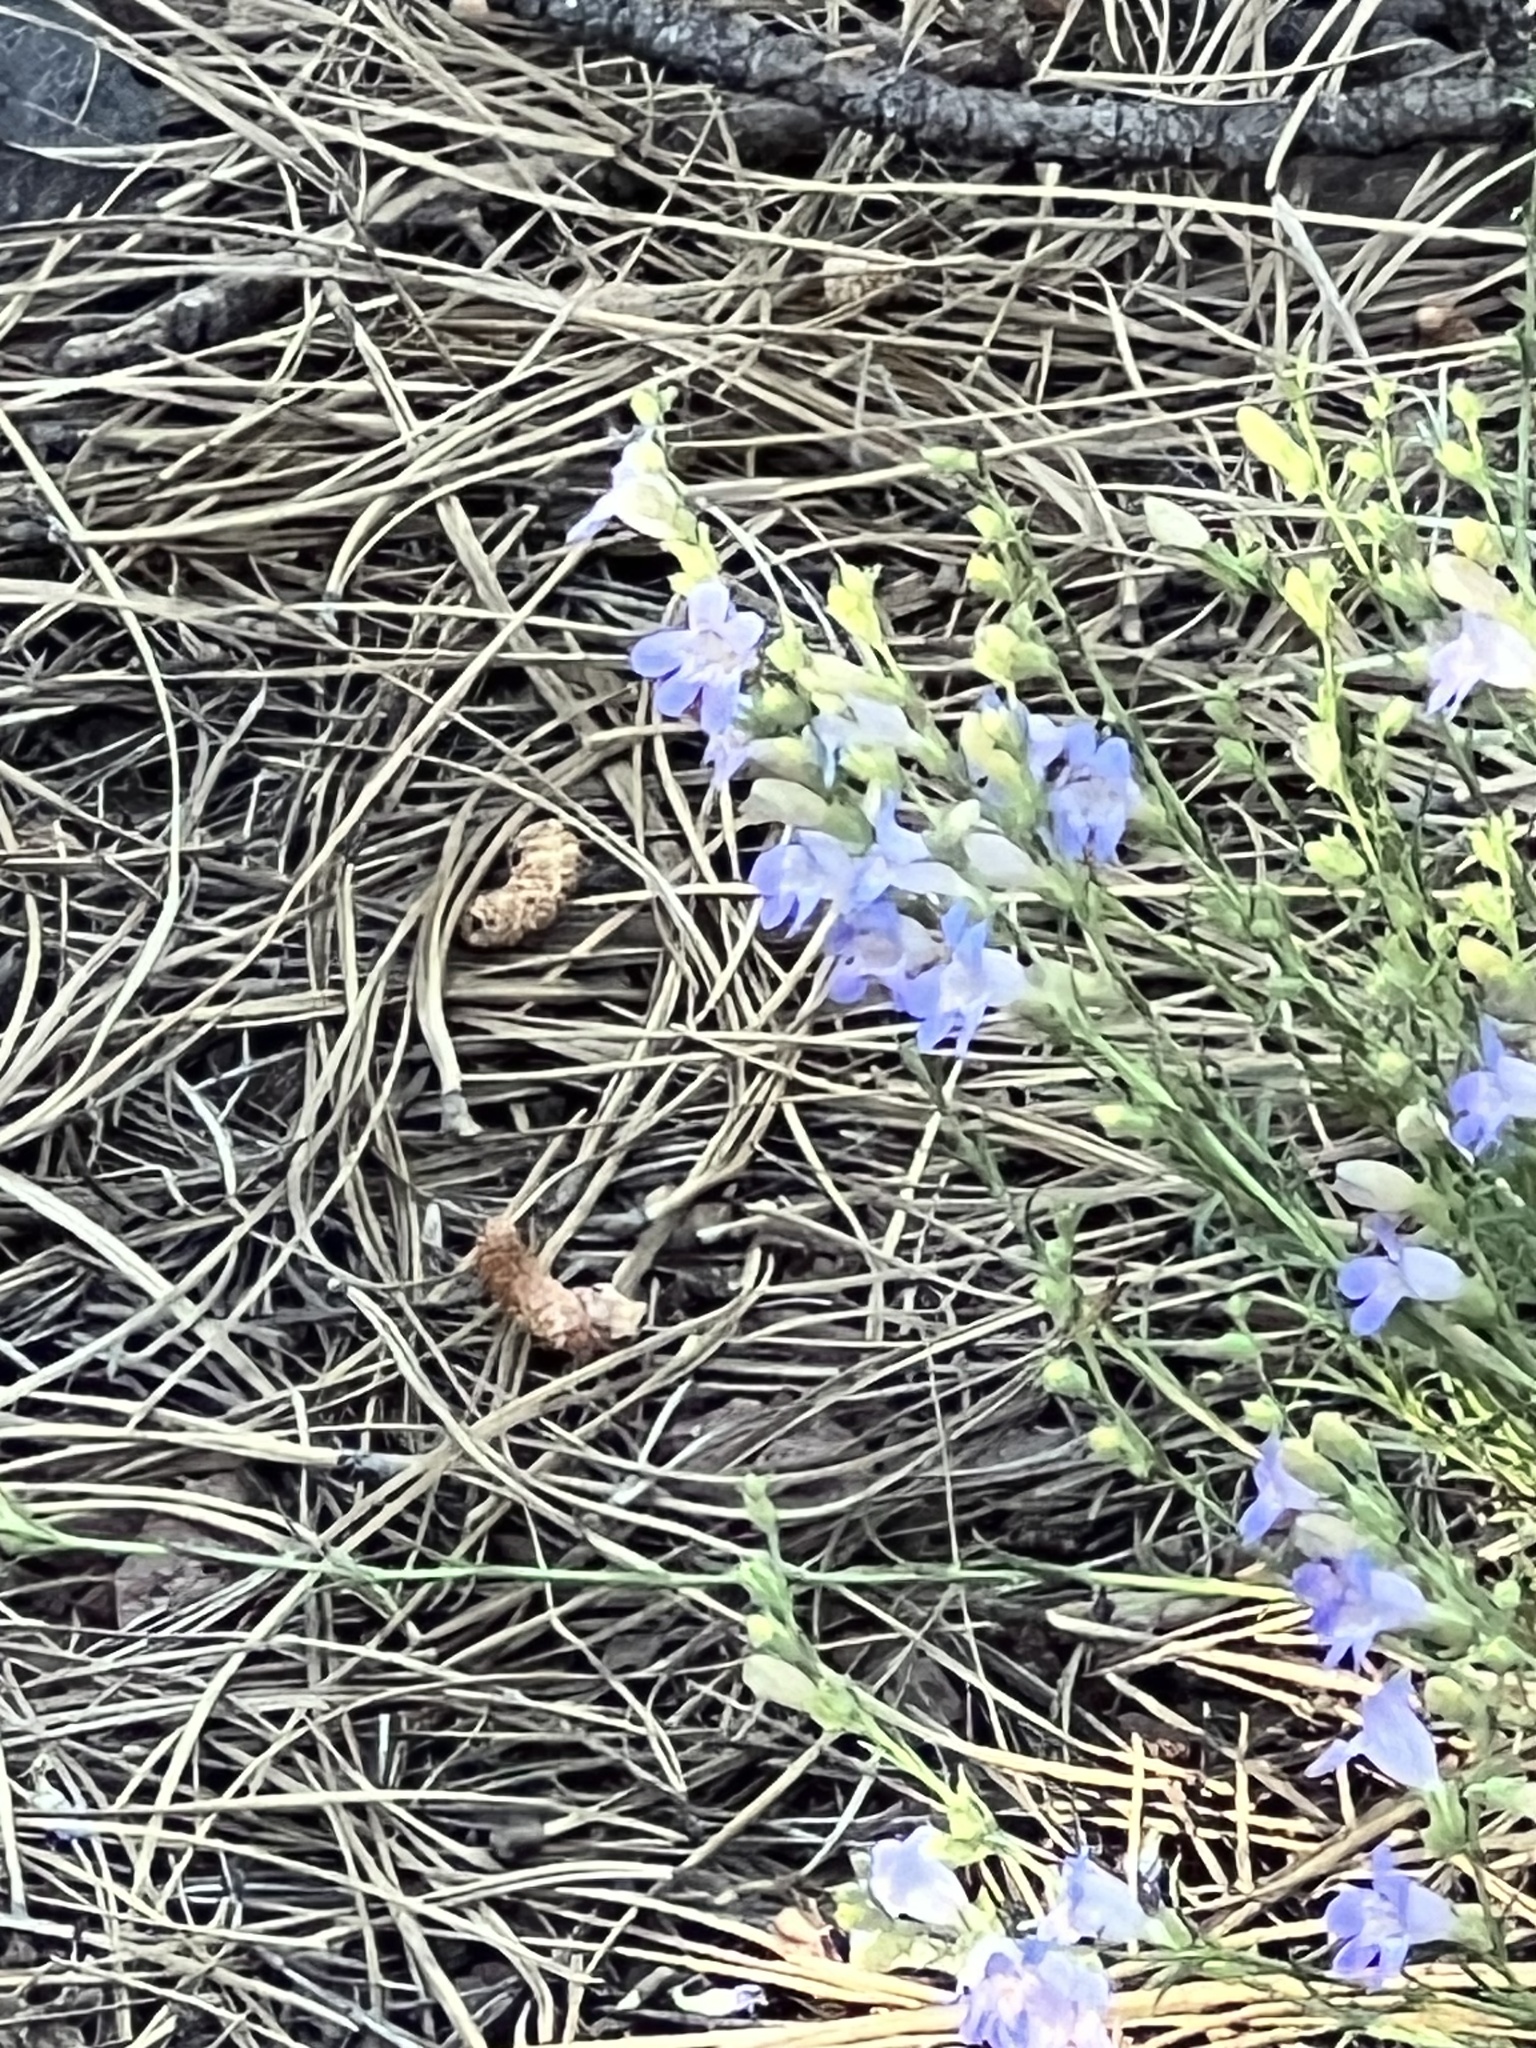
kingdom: Plantae
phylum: Tracheophyta
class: Magnoliopsida
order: Lamiales
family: Plantaginaceae
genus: Penstemon
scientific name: Penstemon linarioides
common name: Siler's penstemon
